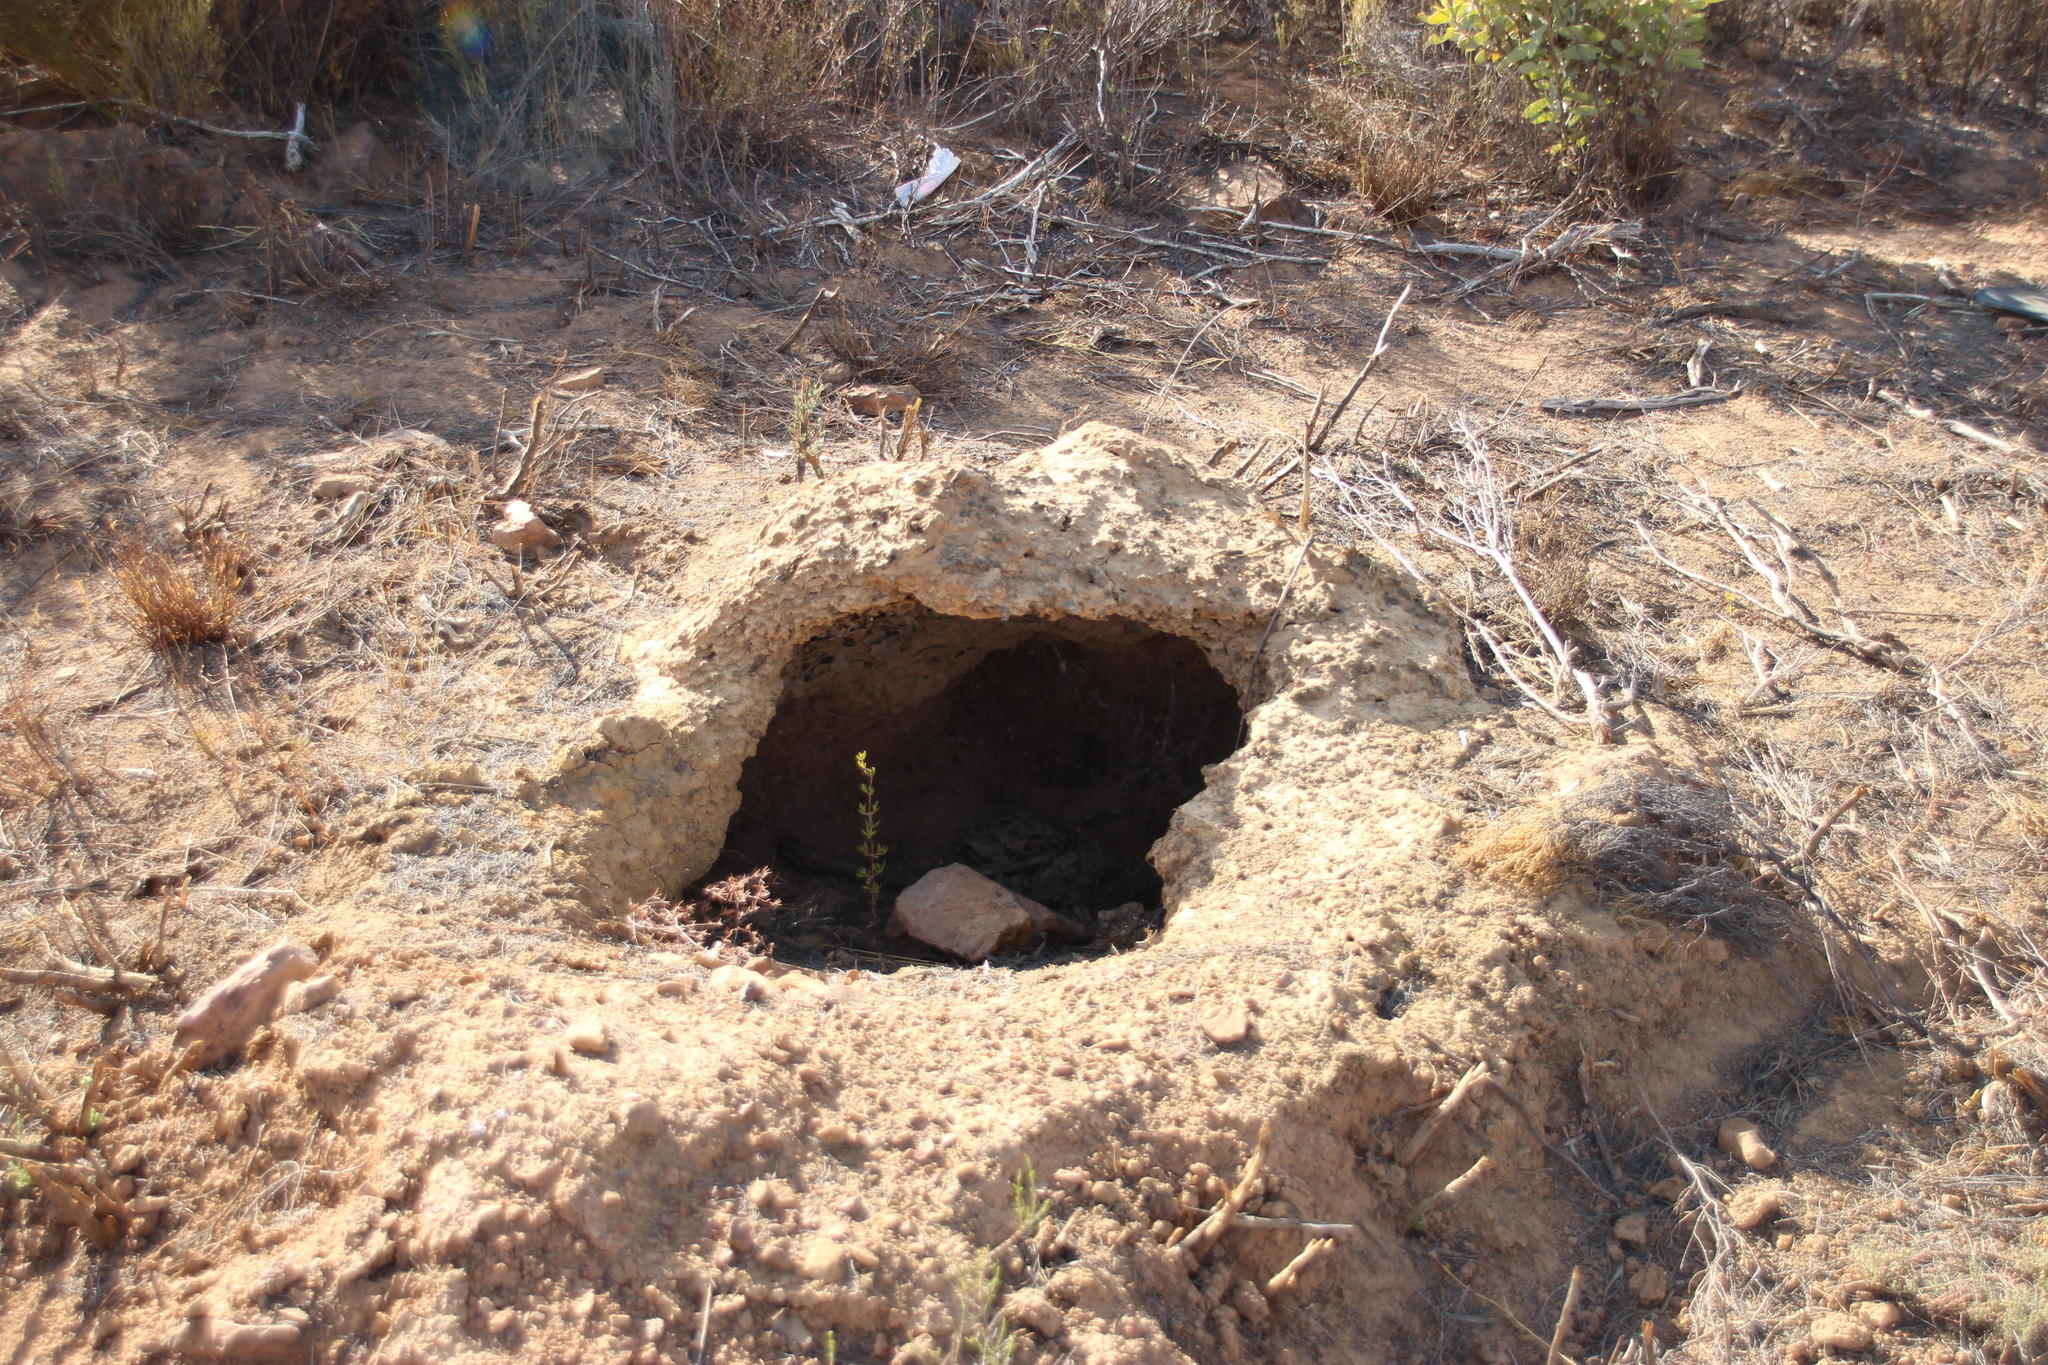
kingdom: Animalia
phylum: Chordata
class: Mammalia
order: Tubulidentata
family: Orycteropodidae
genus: Orycteropus
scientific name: Orycteropus afer
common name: Aardvark
